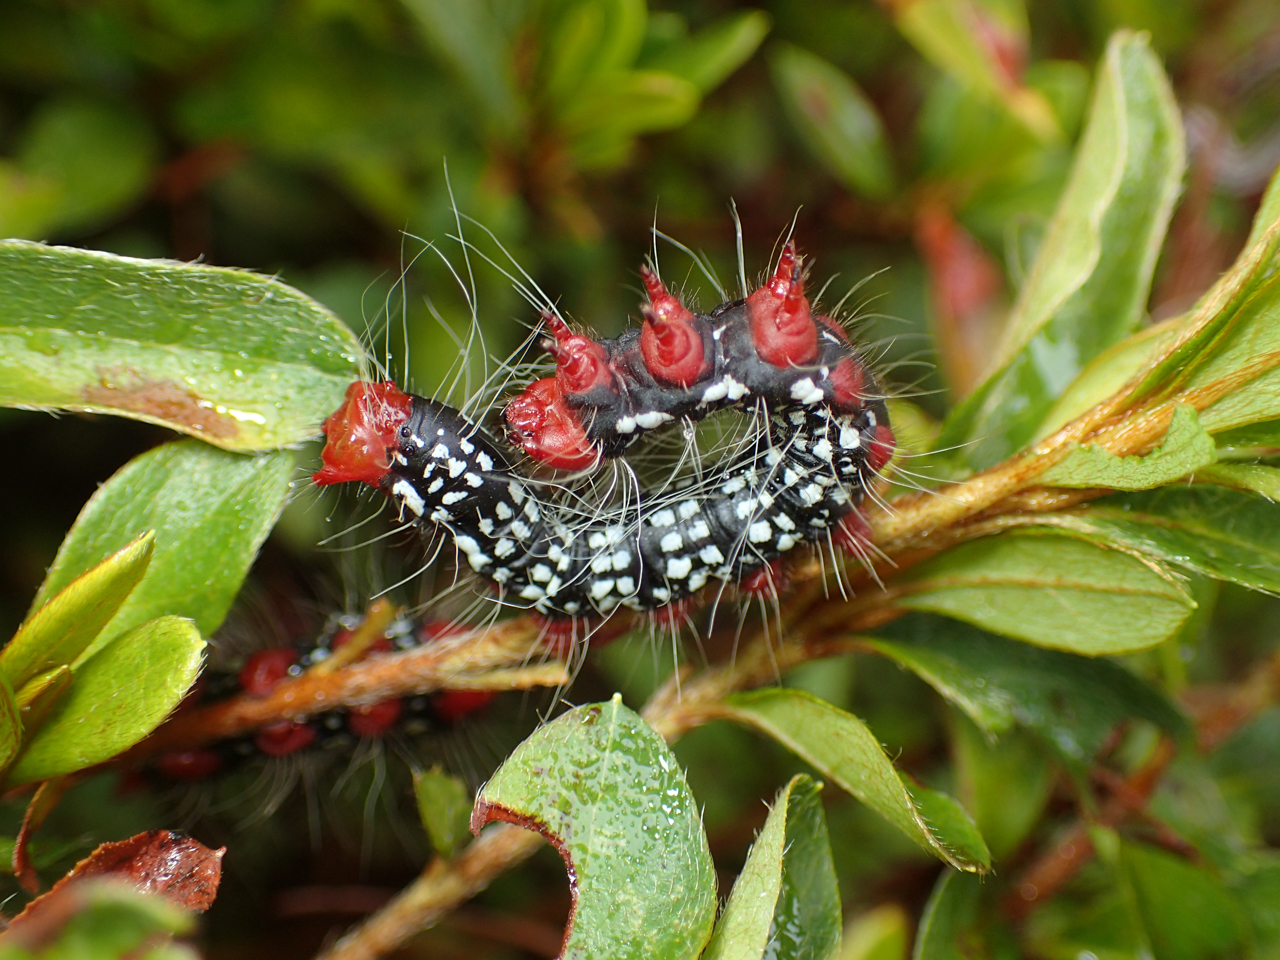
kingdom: Animalia
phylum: Arthropoda
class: Insecta
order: Lepidoptera
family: Notodontidae
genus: Datana
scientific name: Datana major
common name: Azalea caterpillar
